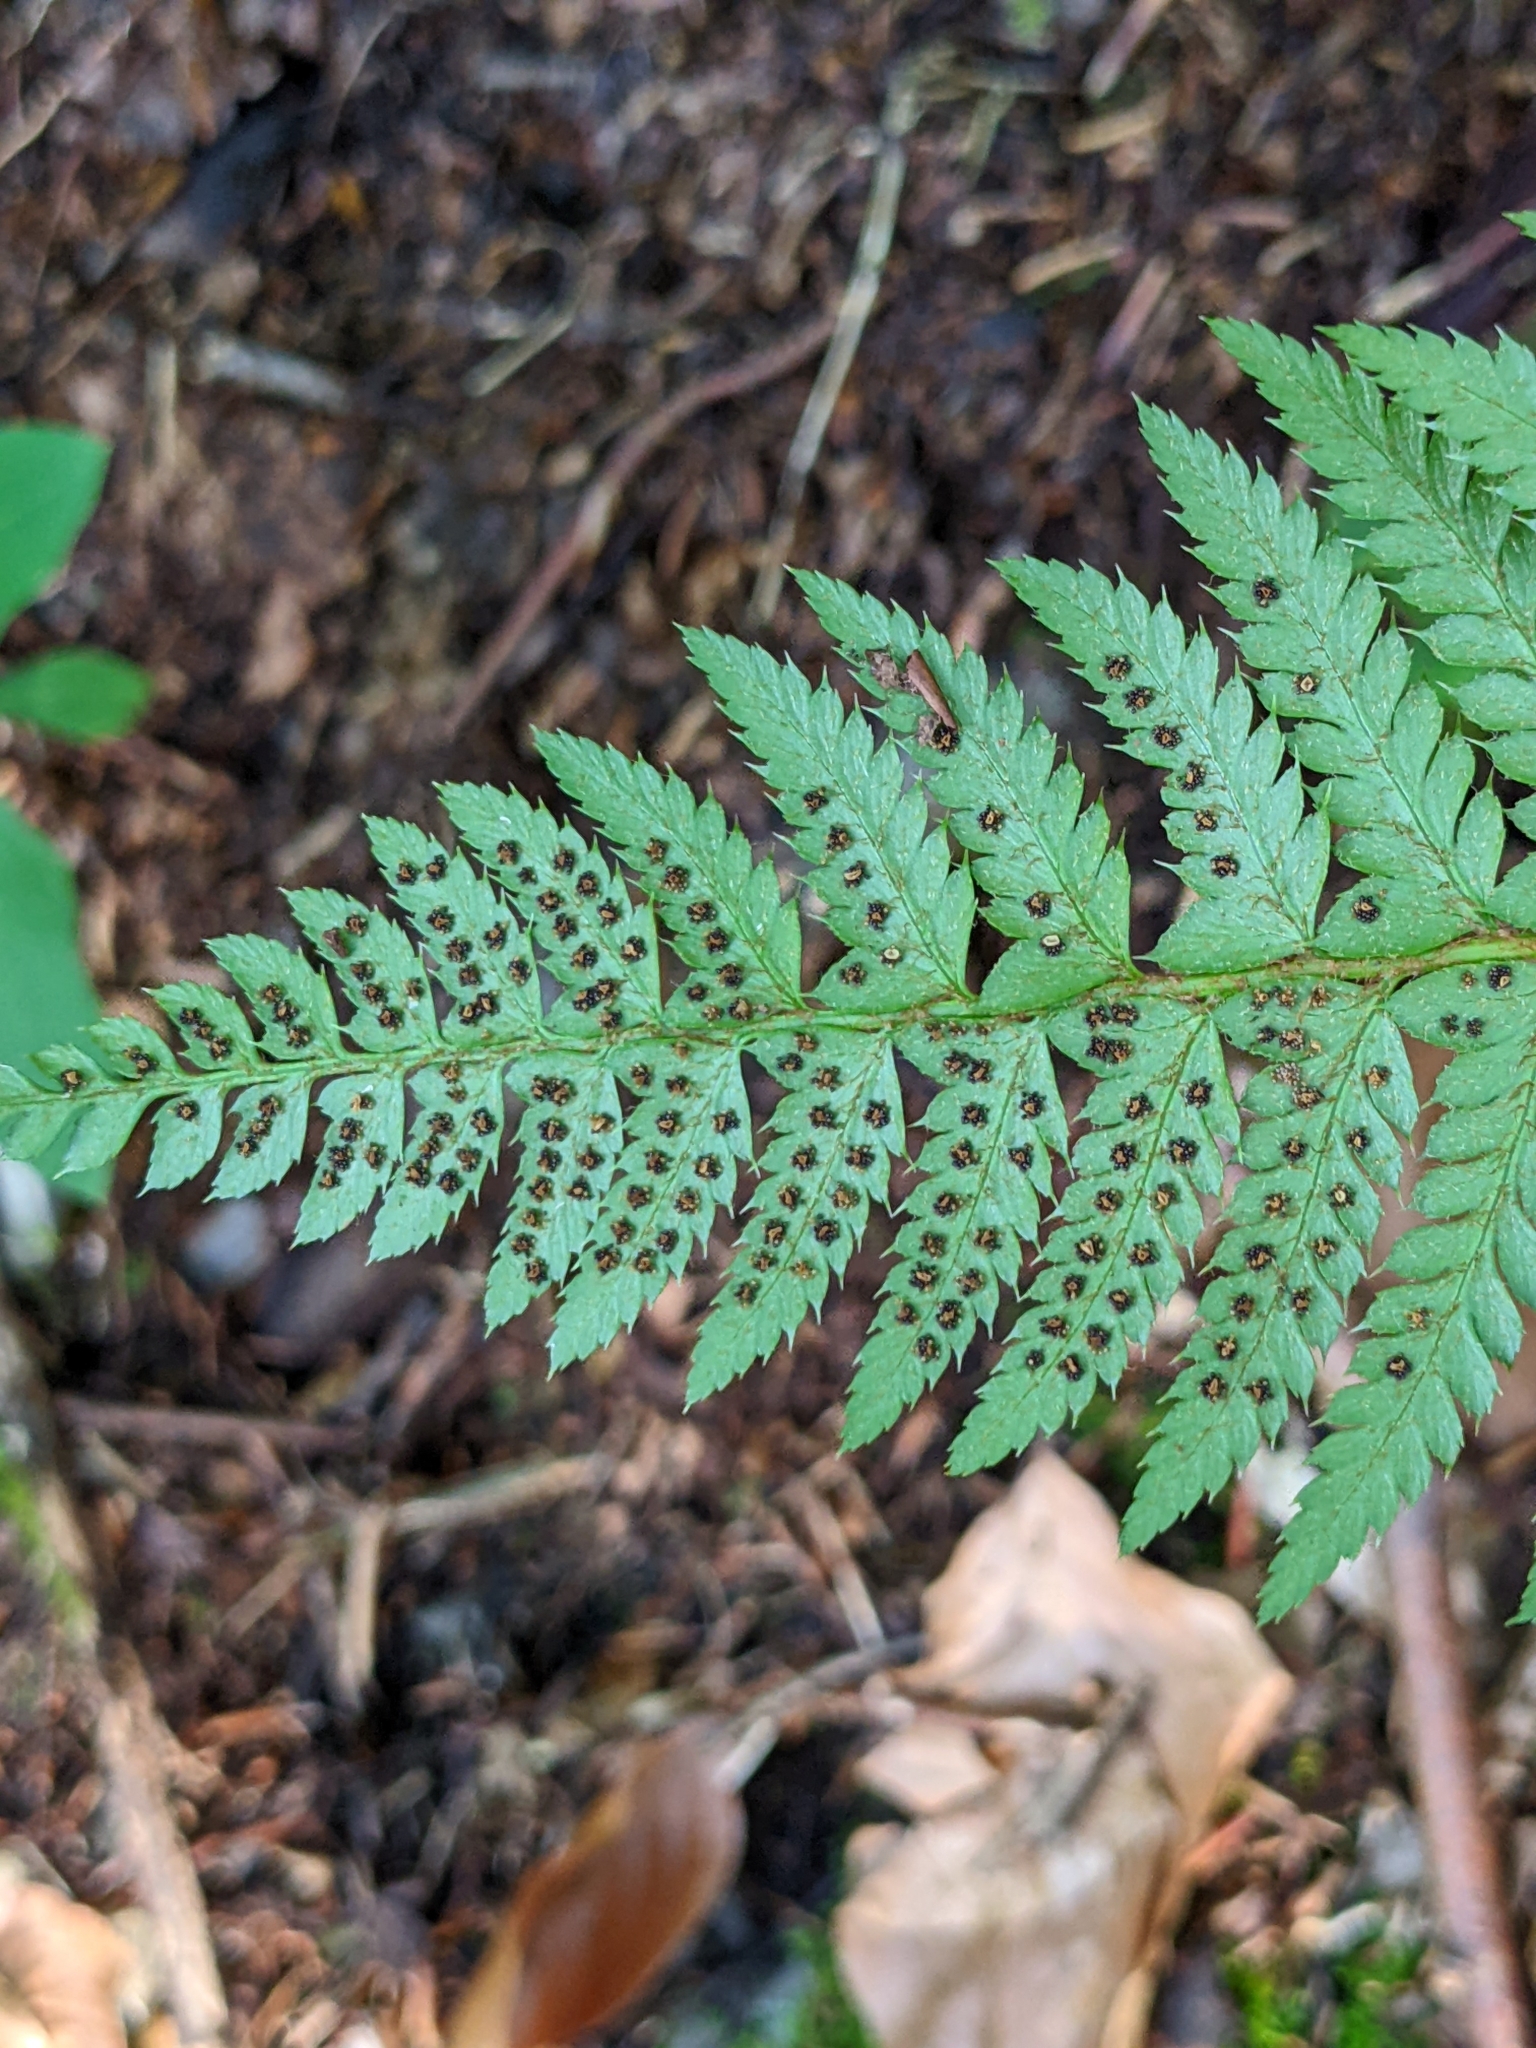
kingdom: Plantae
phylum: Tracheophyta
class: Polypodiopsida
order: Polypodiales
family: Dryopteridaceae
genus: Polystichum
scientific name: Polystichum aculeatum
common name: Hard shield-fern
